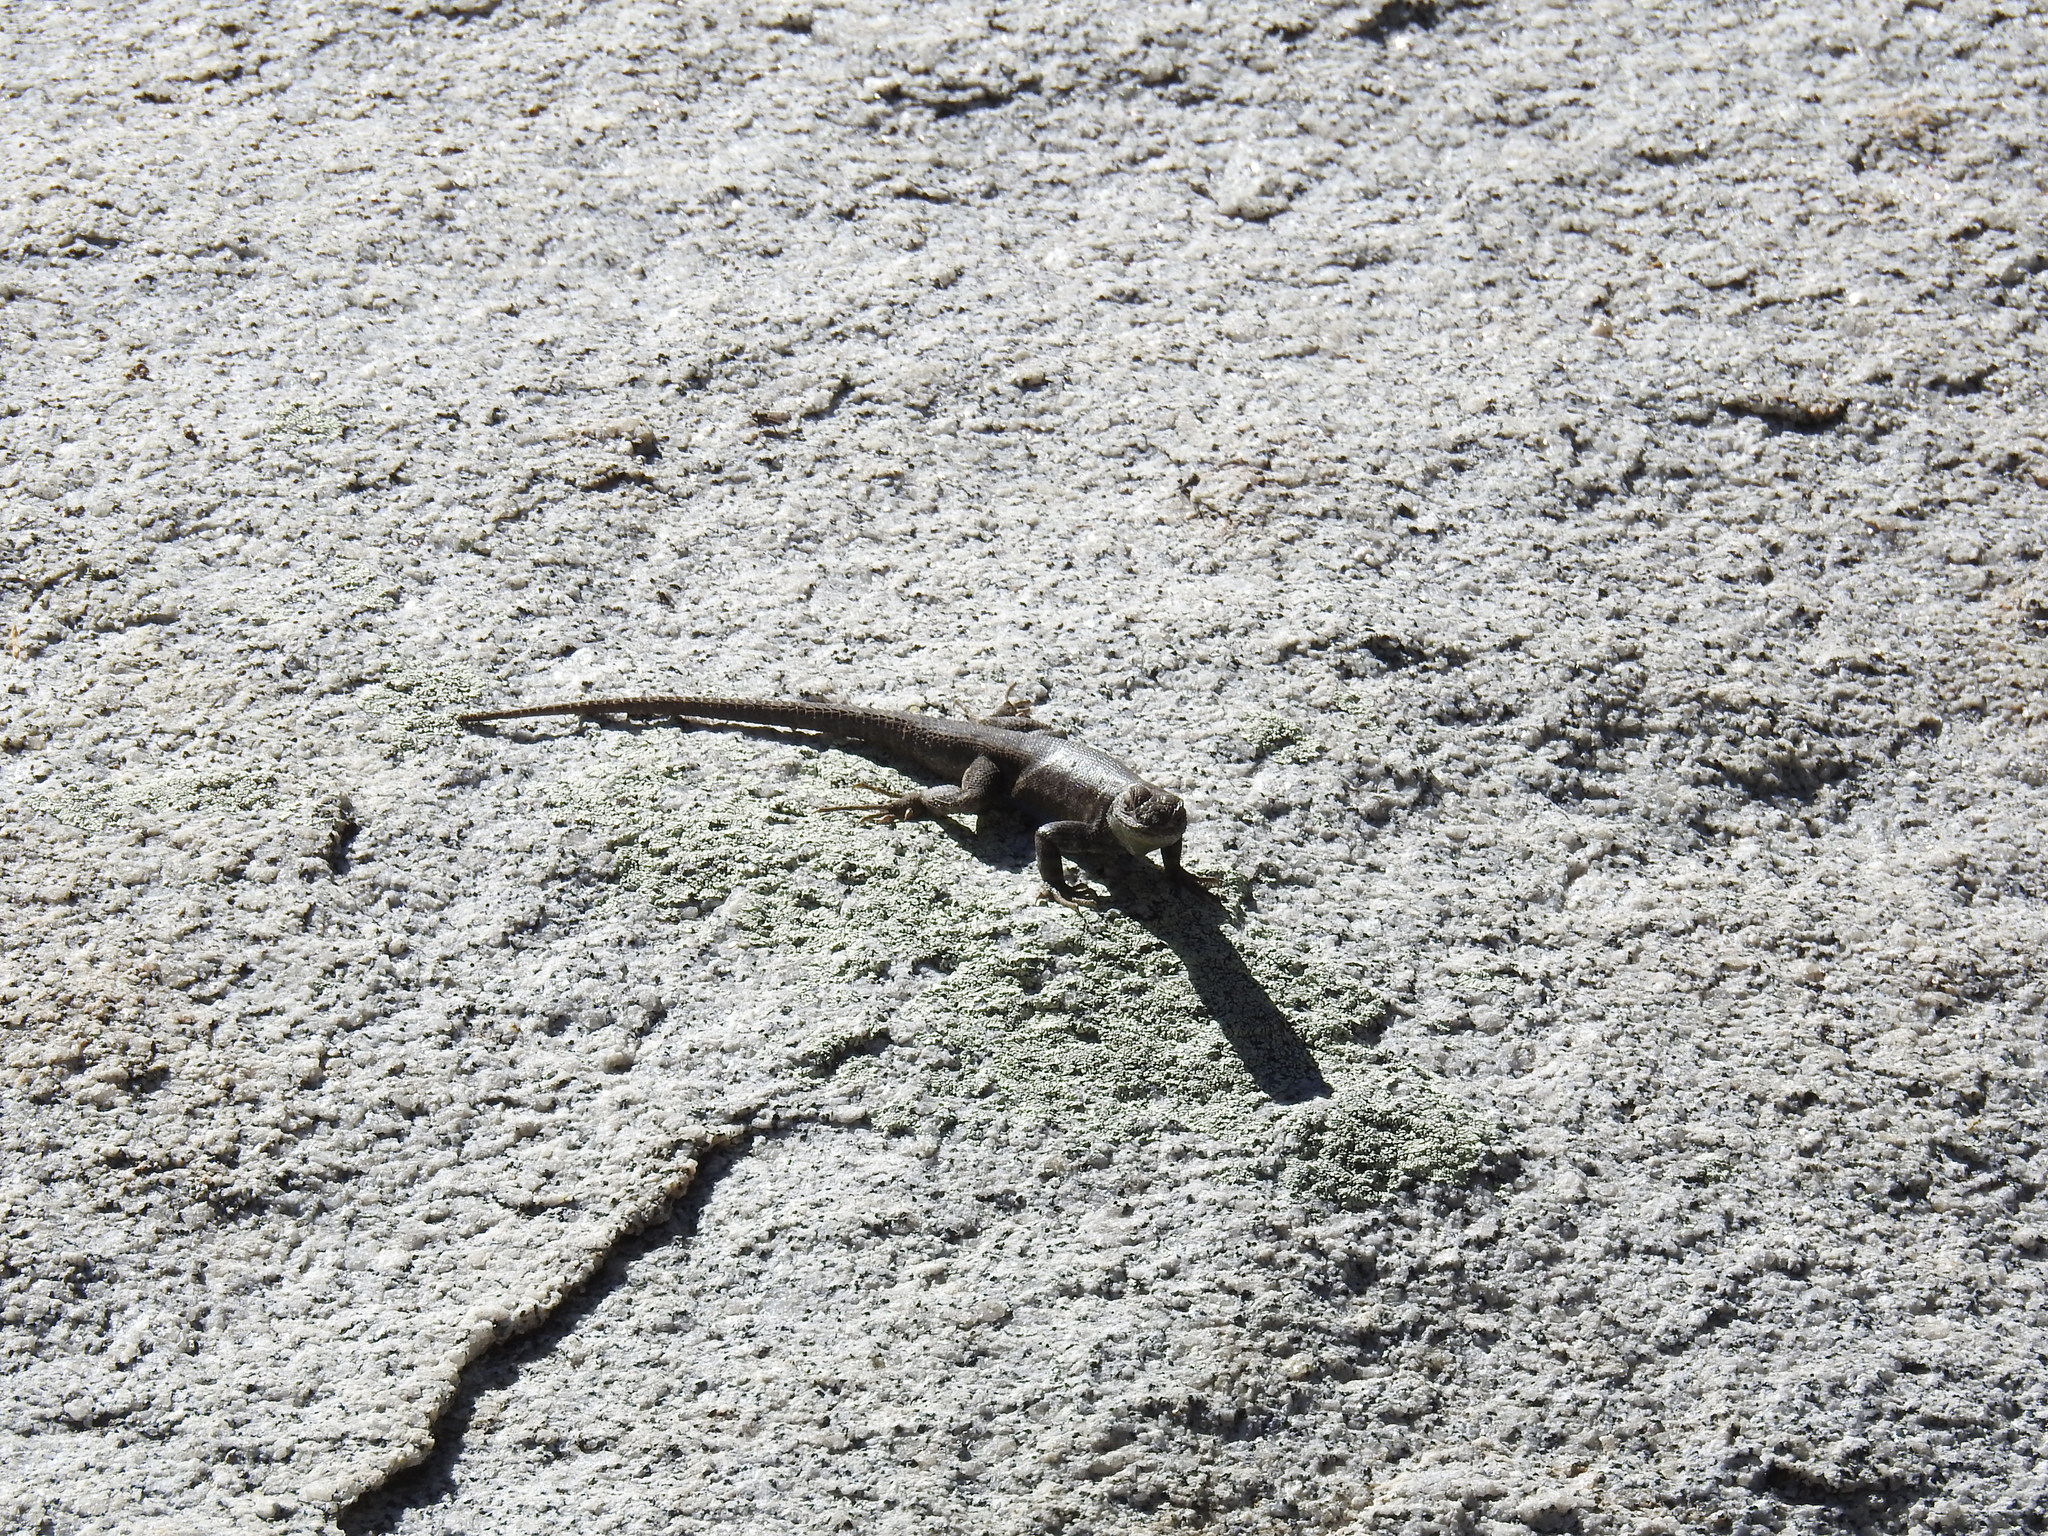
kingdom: Animalia
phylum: Chordata
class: Squamata
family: Phrynosomatidae
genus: Sceloporus
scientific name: Sceloporus graciosus
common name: Sagebrush lizard
